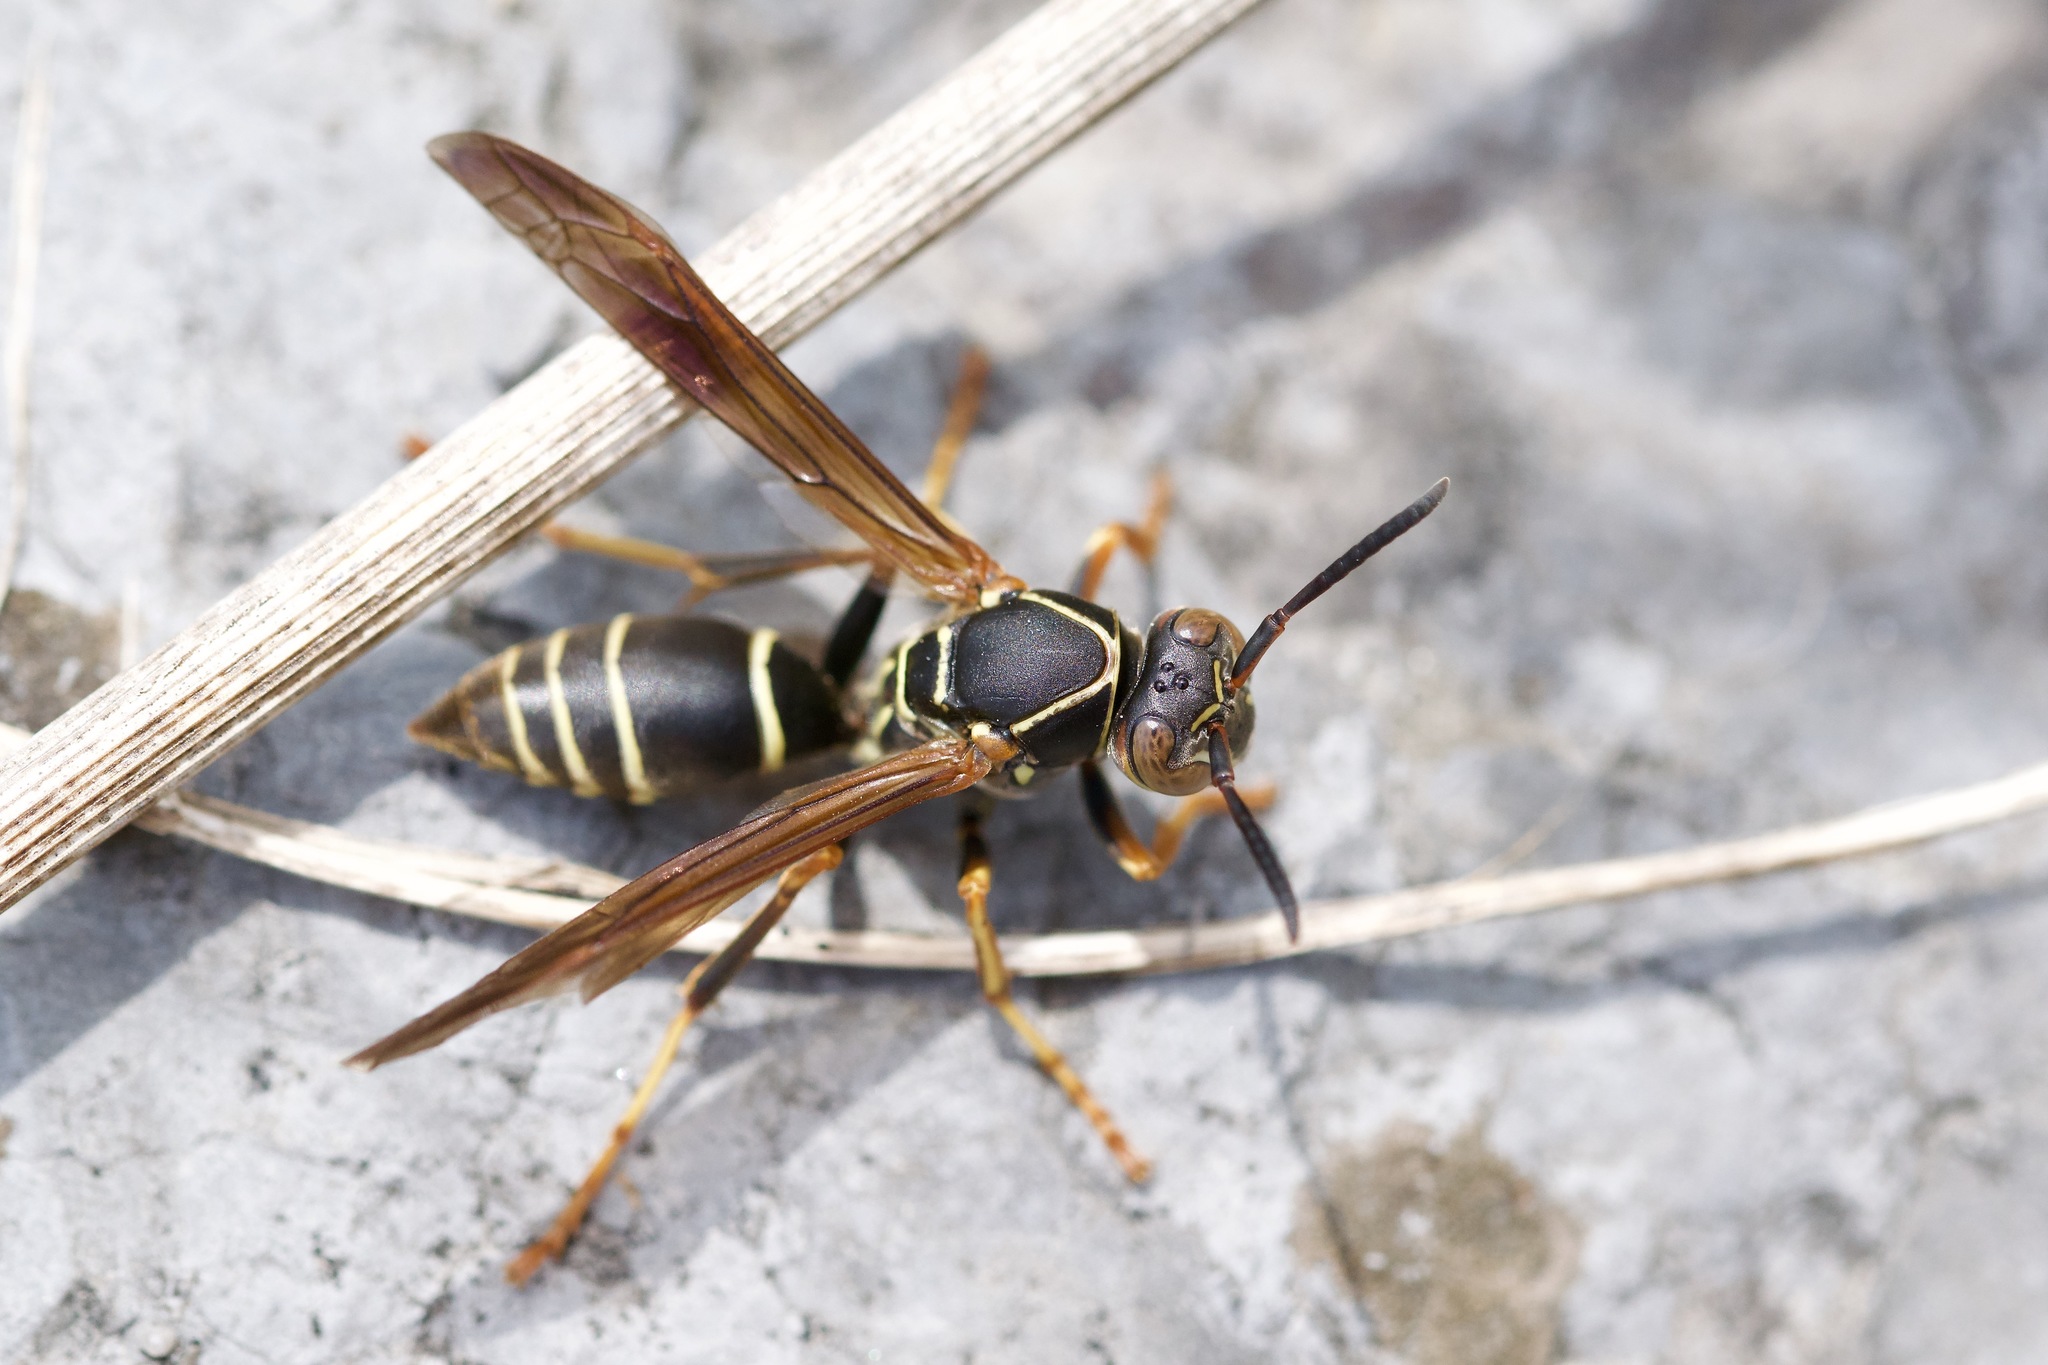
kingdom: Animalia
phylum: Arthropoda
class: Insecta
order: Hymenoptera
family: Eumenidae
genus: Polistes
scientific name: Polistes fuscatus
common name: Dark paper wasp
